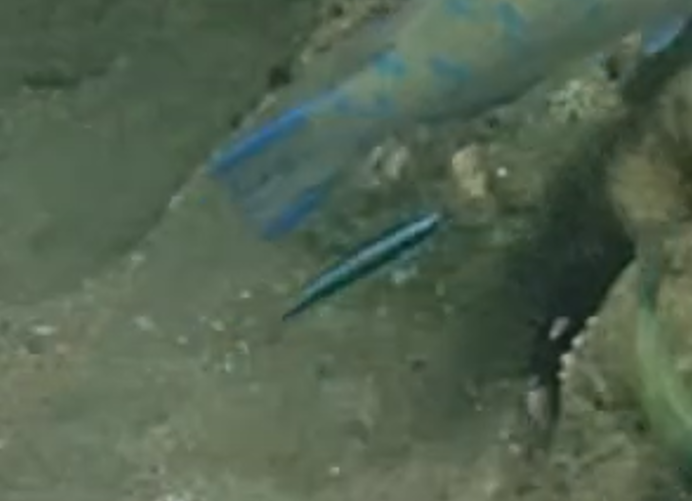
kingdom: Animalia
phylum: Chordata
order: Perciformes
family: Labridae
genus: Thalassoma
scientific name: Thalassoma amblycephalum
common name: Bluehead wrasse
